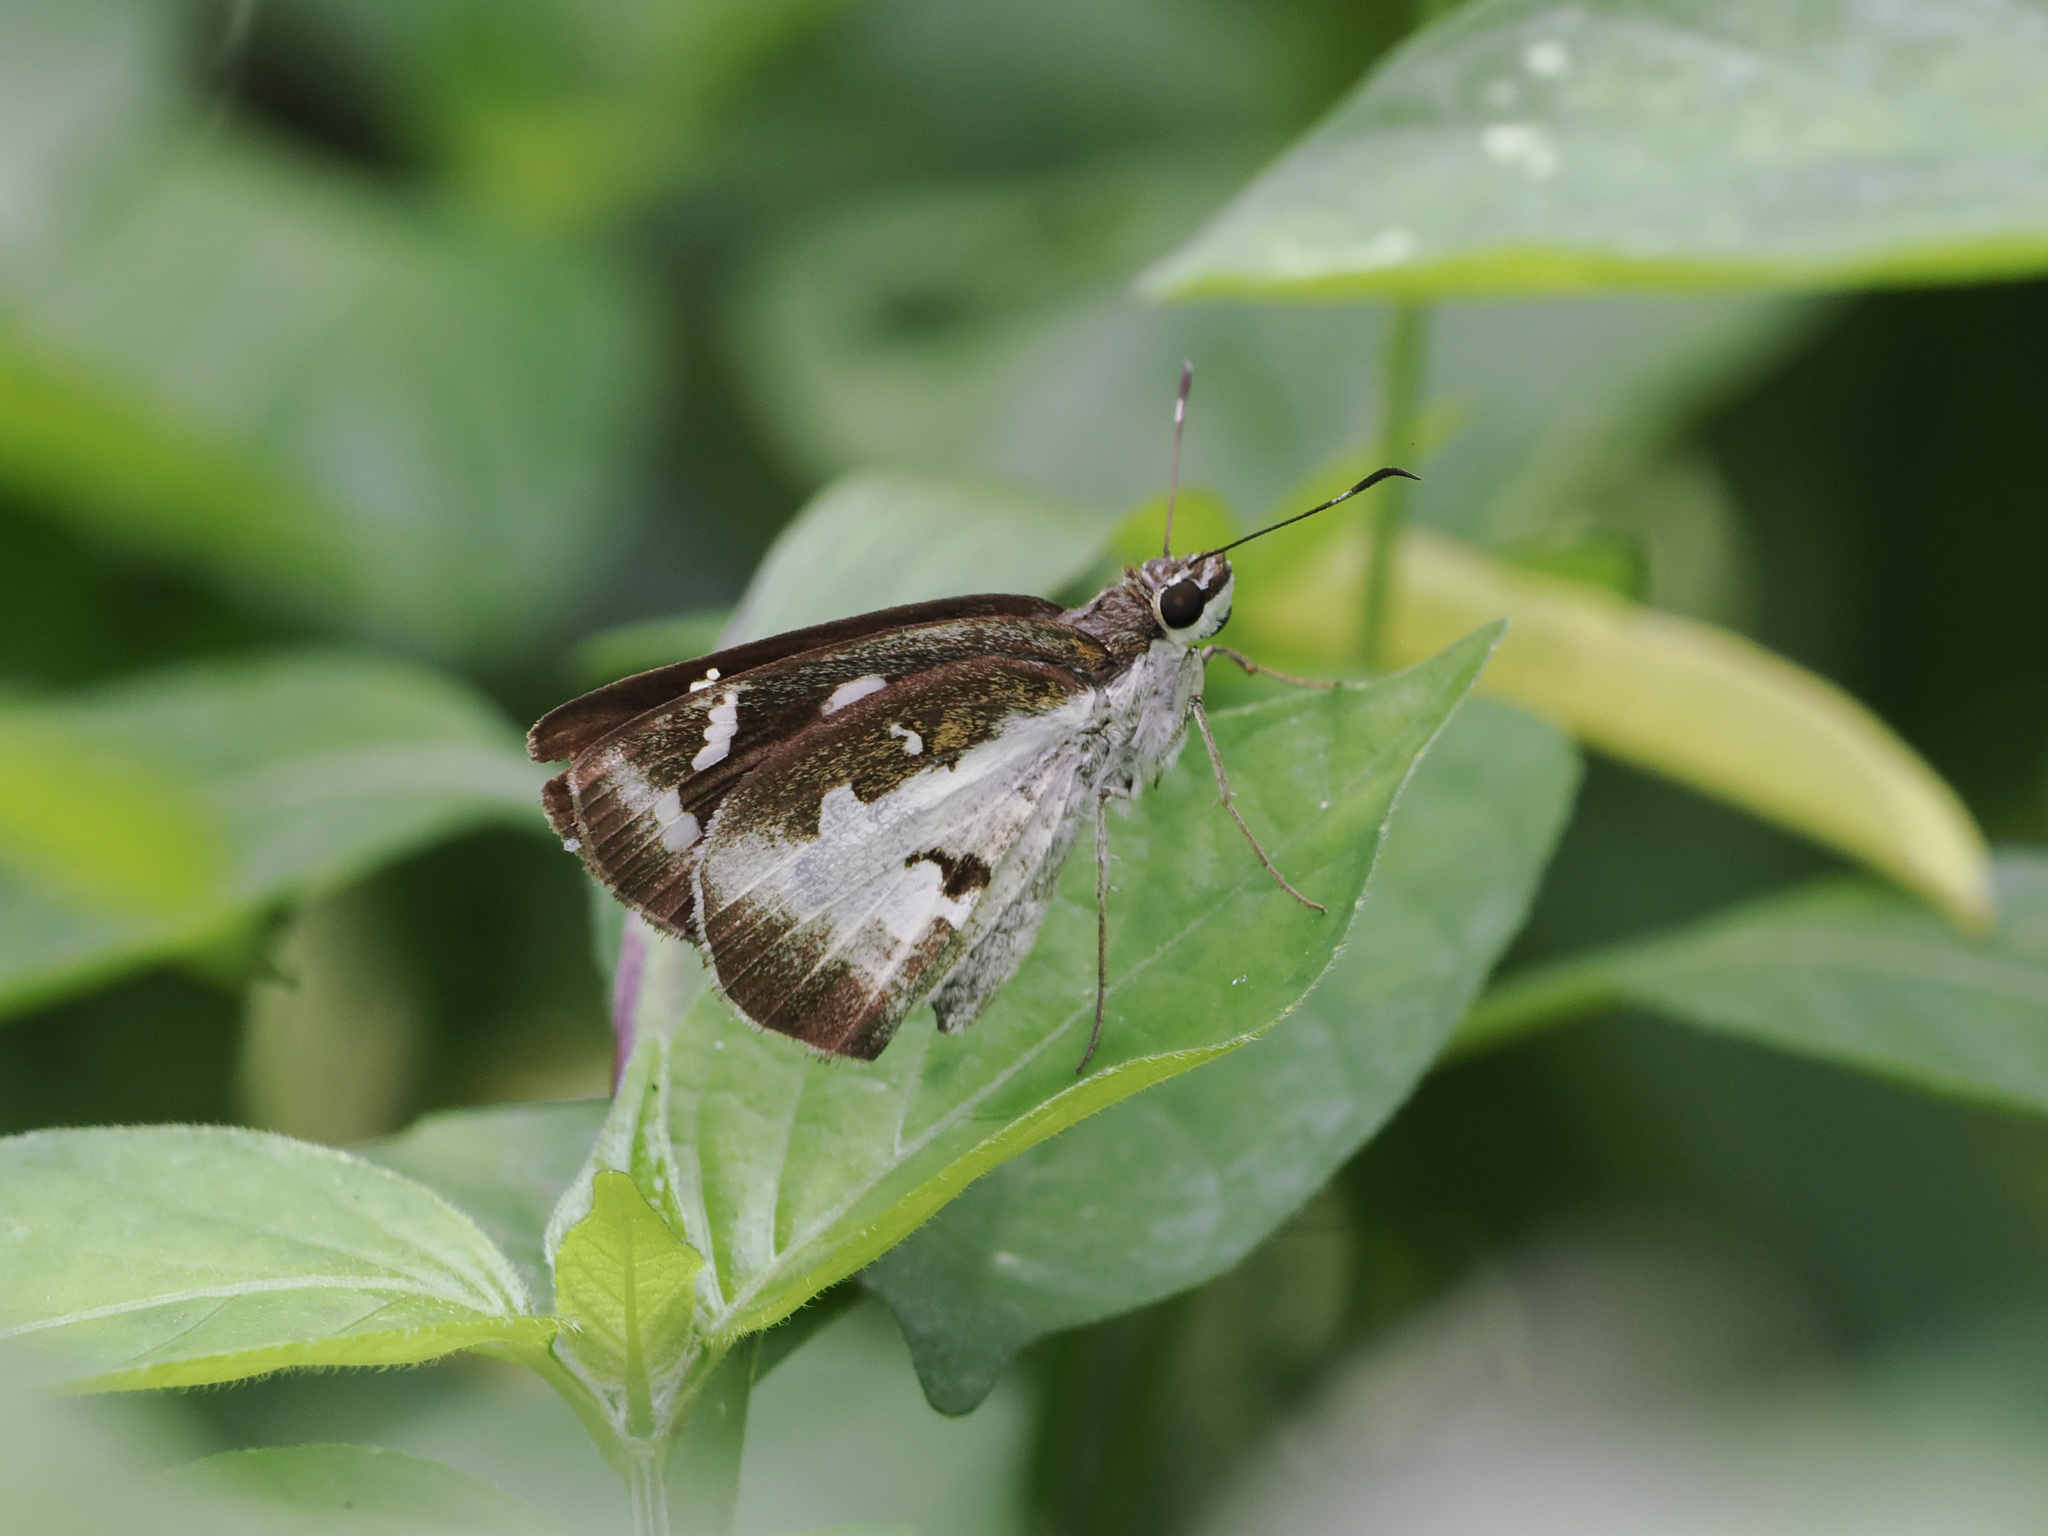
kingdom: Animalia
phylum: Arthropoda
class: Insecta
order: Lepidoptera
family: Hesperiidae
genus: Udaspes
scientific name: Udaspes folus
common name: Grass demon
